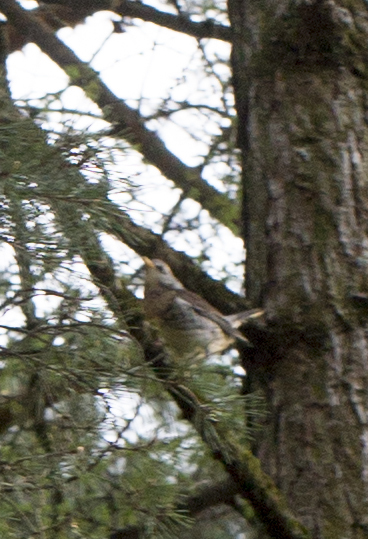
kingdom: Animalia
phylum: Chordata
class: Aves
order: Passeriformes
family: Turdidae
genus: Turdus
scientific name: Turdus pilaris
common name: Fieldfare
